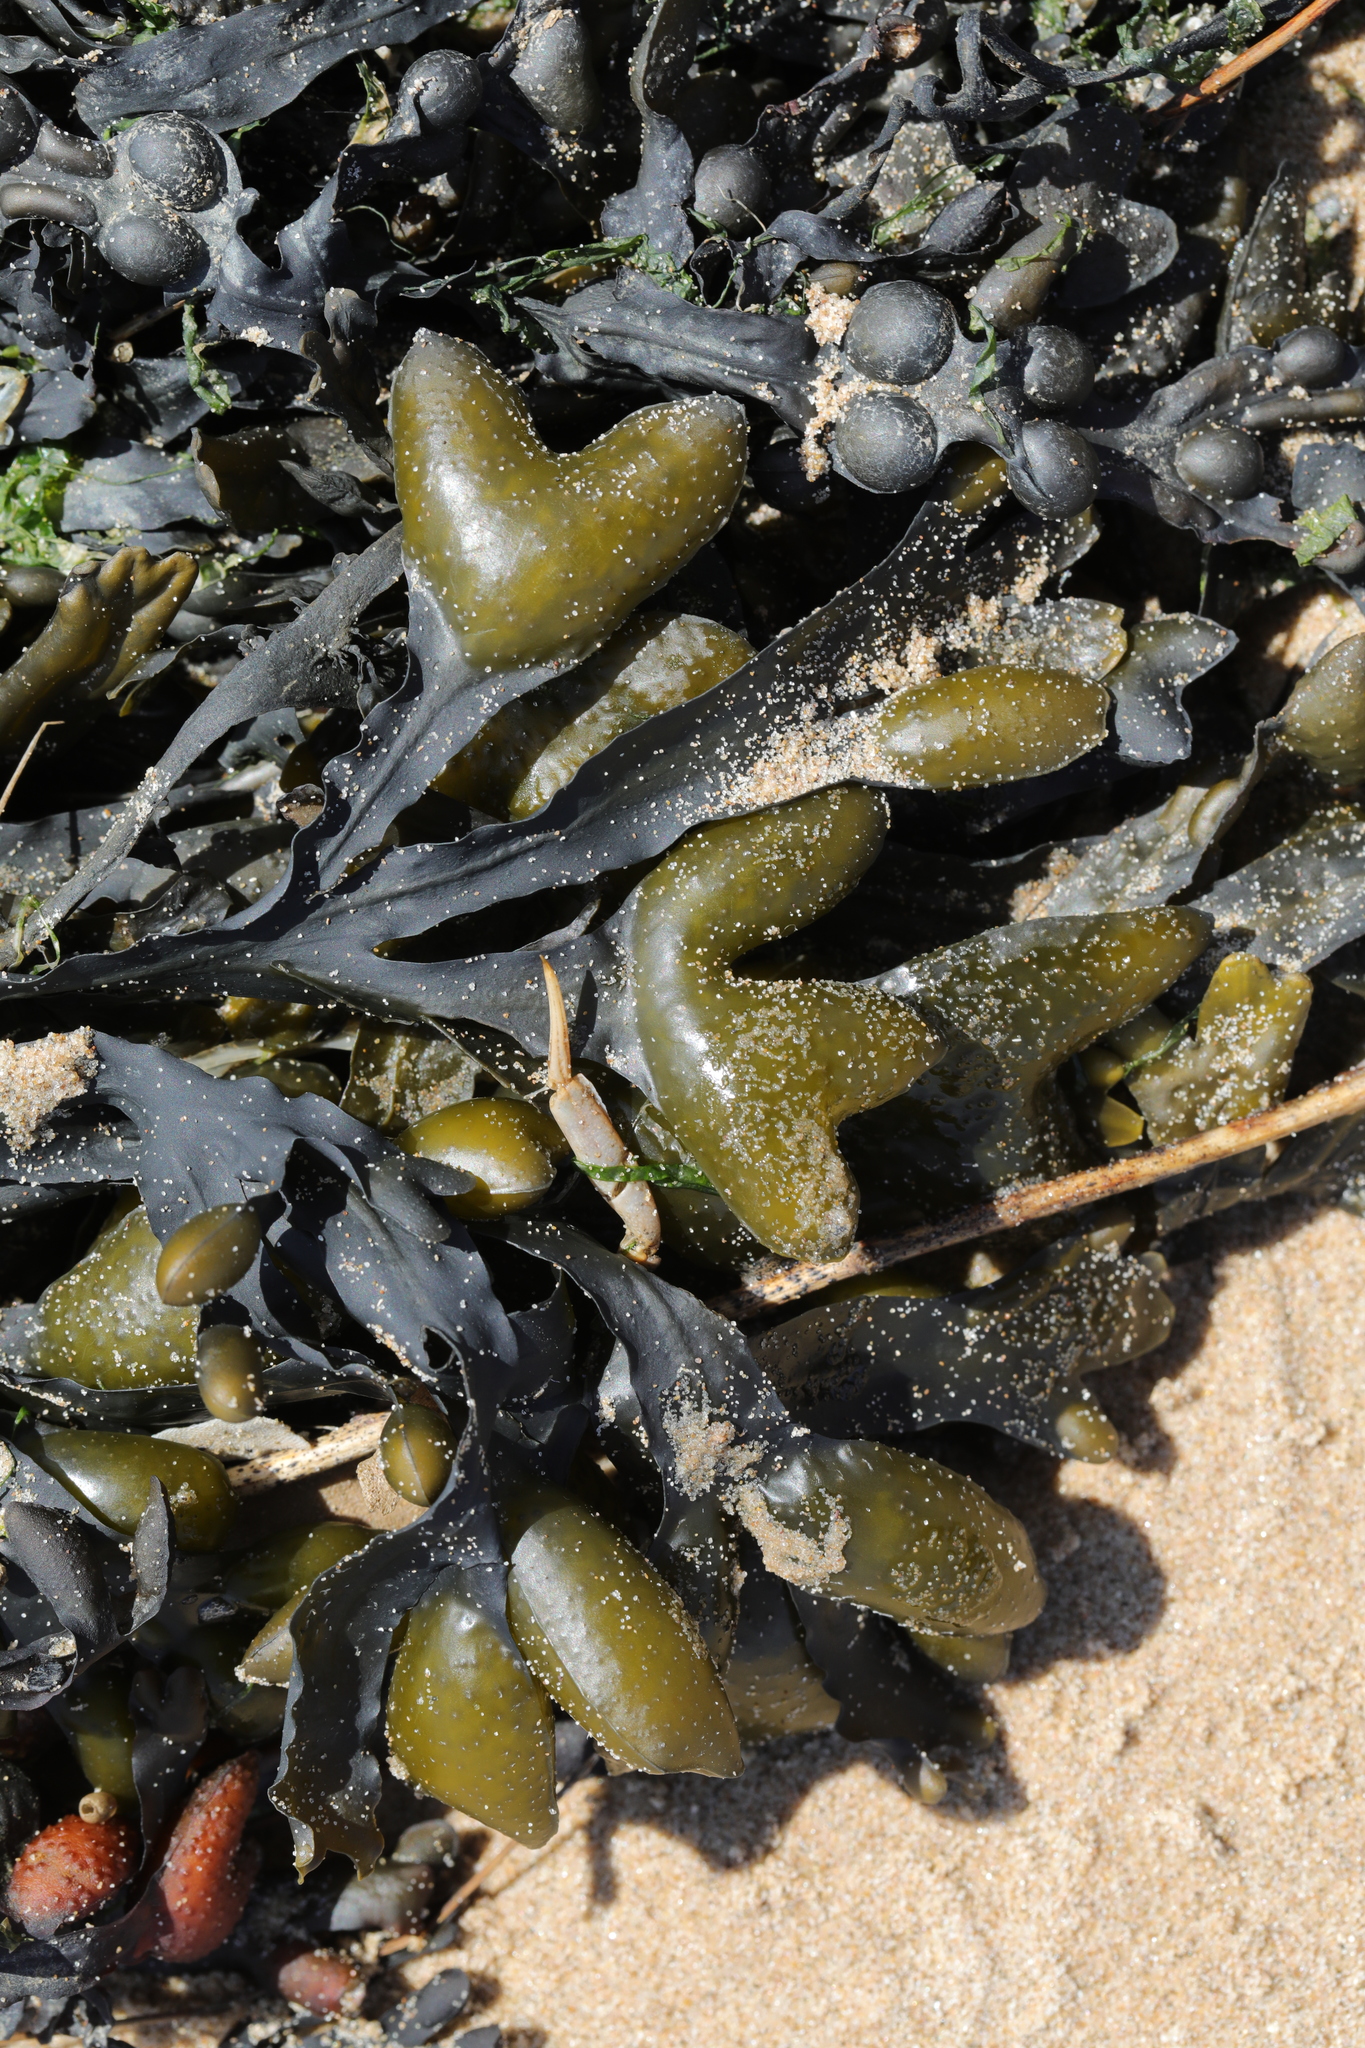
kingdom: Chromista
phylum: Ochrophyta
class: Phaeophyceae
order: Fucales
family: Fucaceae
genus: Fucus
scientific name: Fucus vesiculosus
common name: Bladder wrack
